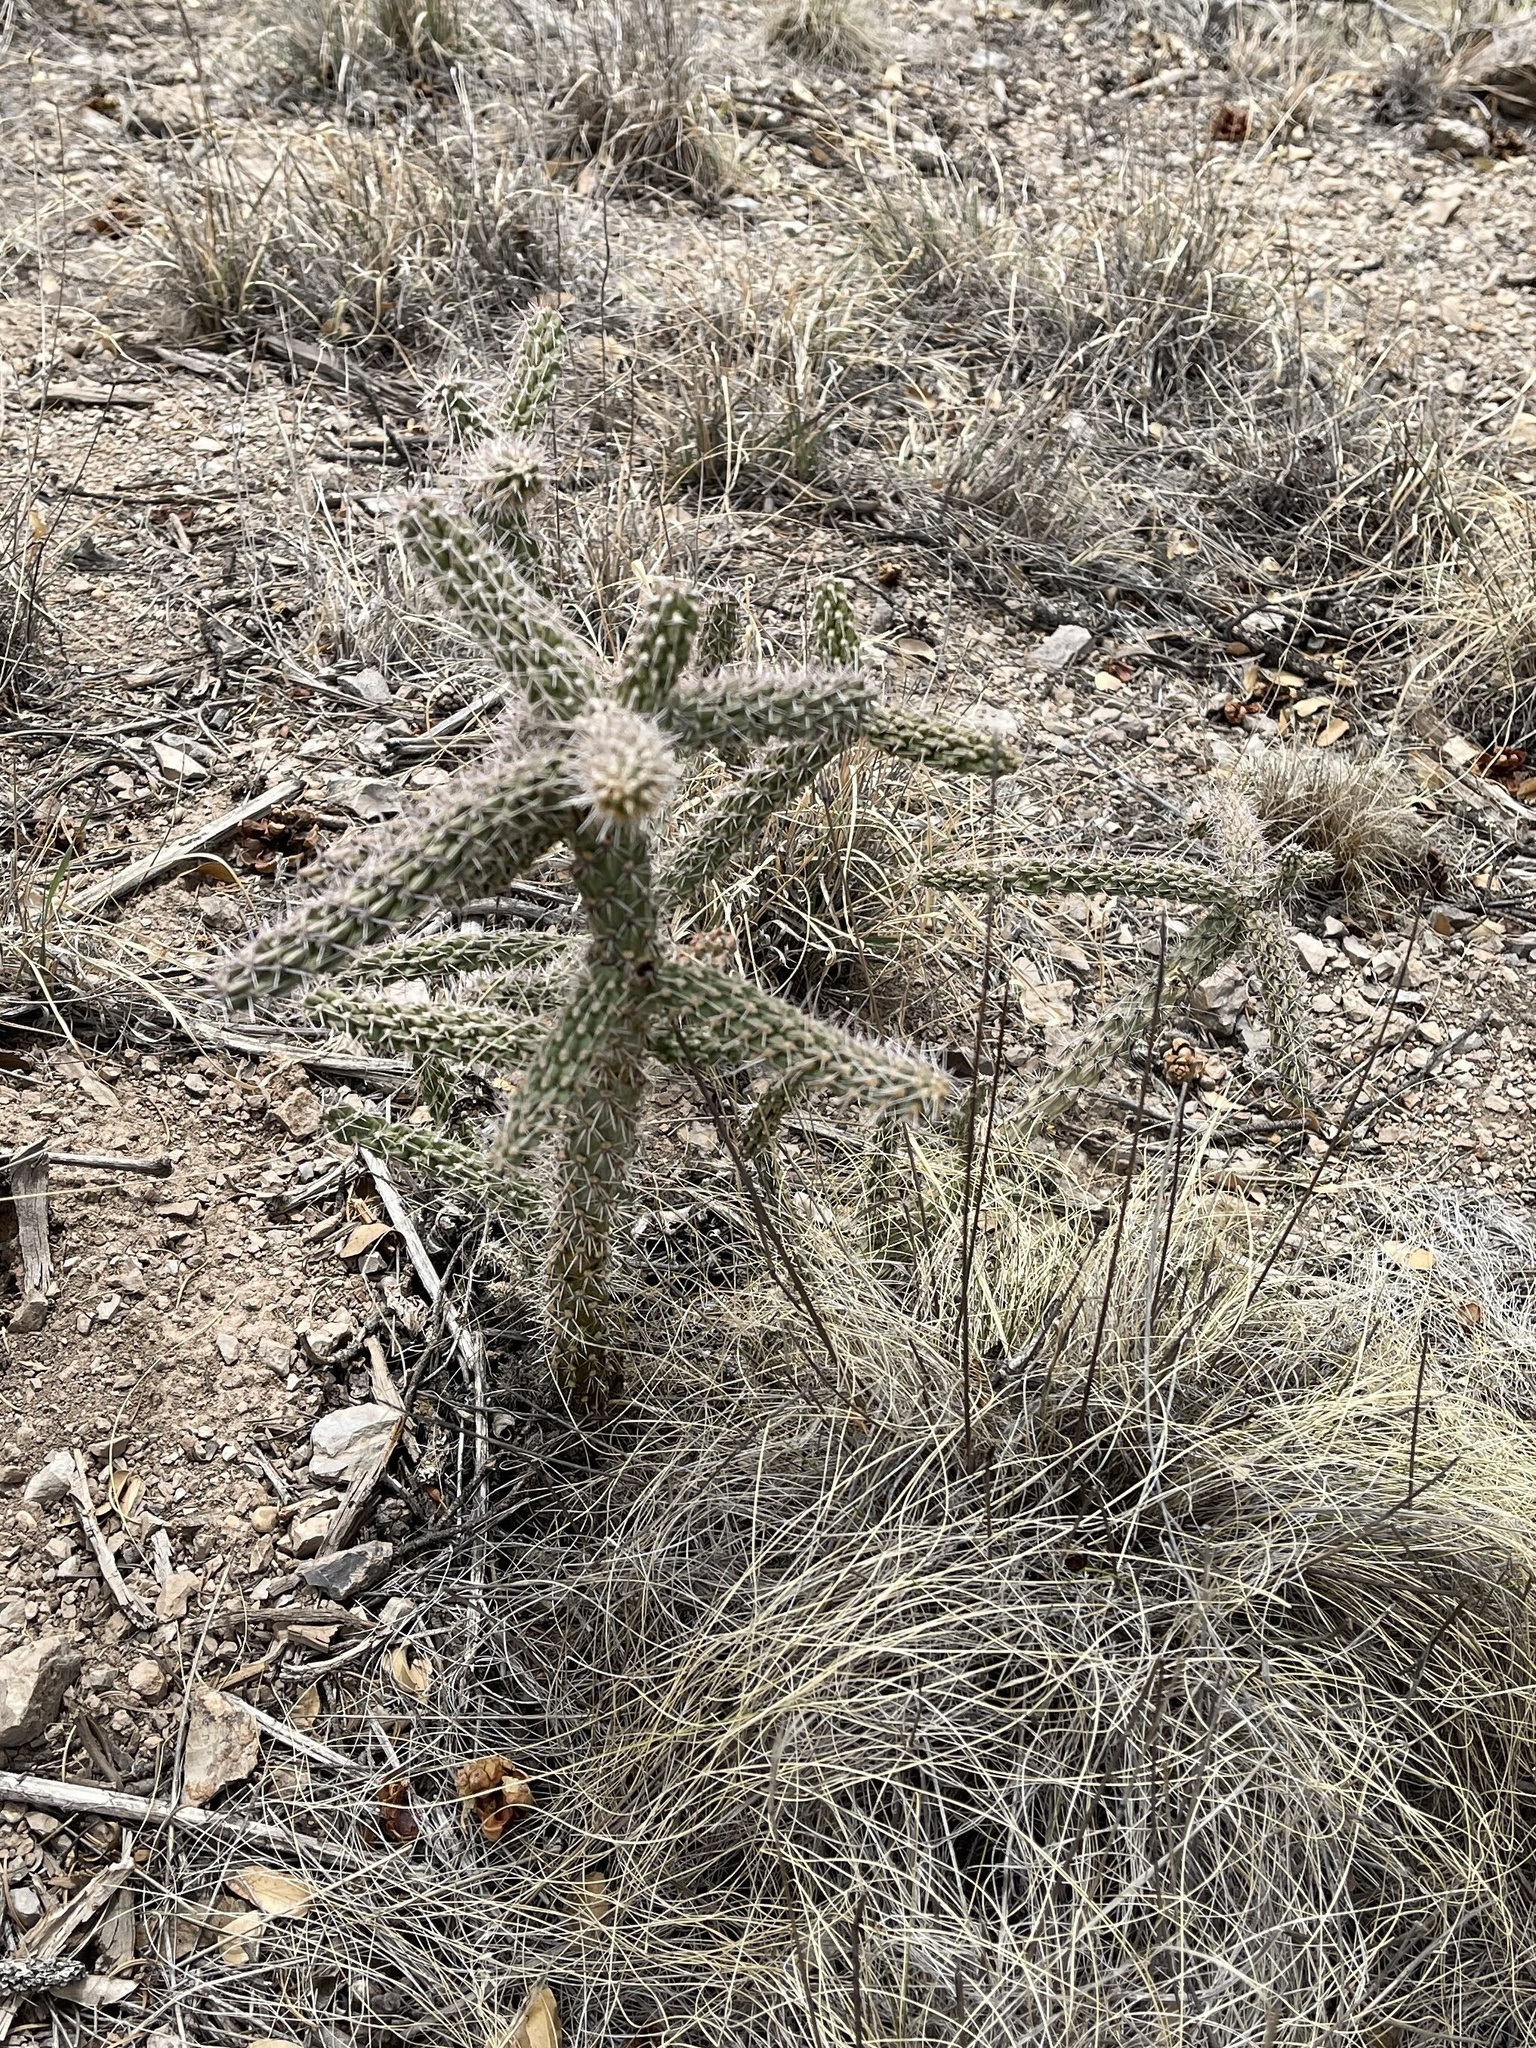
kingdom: Plantae
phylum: Tracheophyta
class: Magnoliopsida
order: Caryophyllales
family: Cactaceae
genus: Cylindropuntia
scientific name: Cylindropuntia imbricata
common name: Candelabrum cactus
